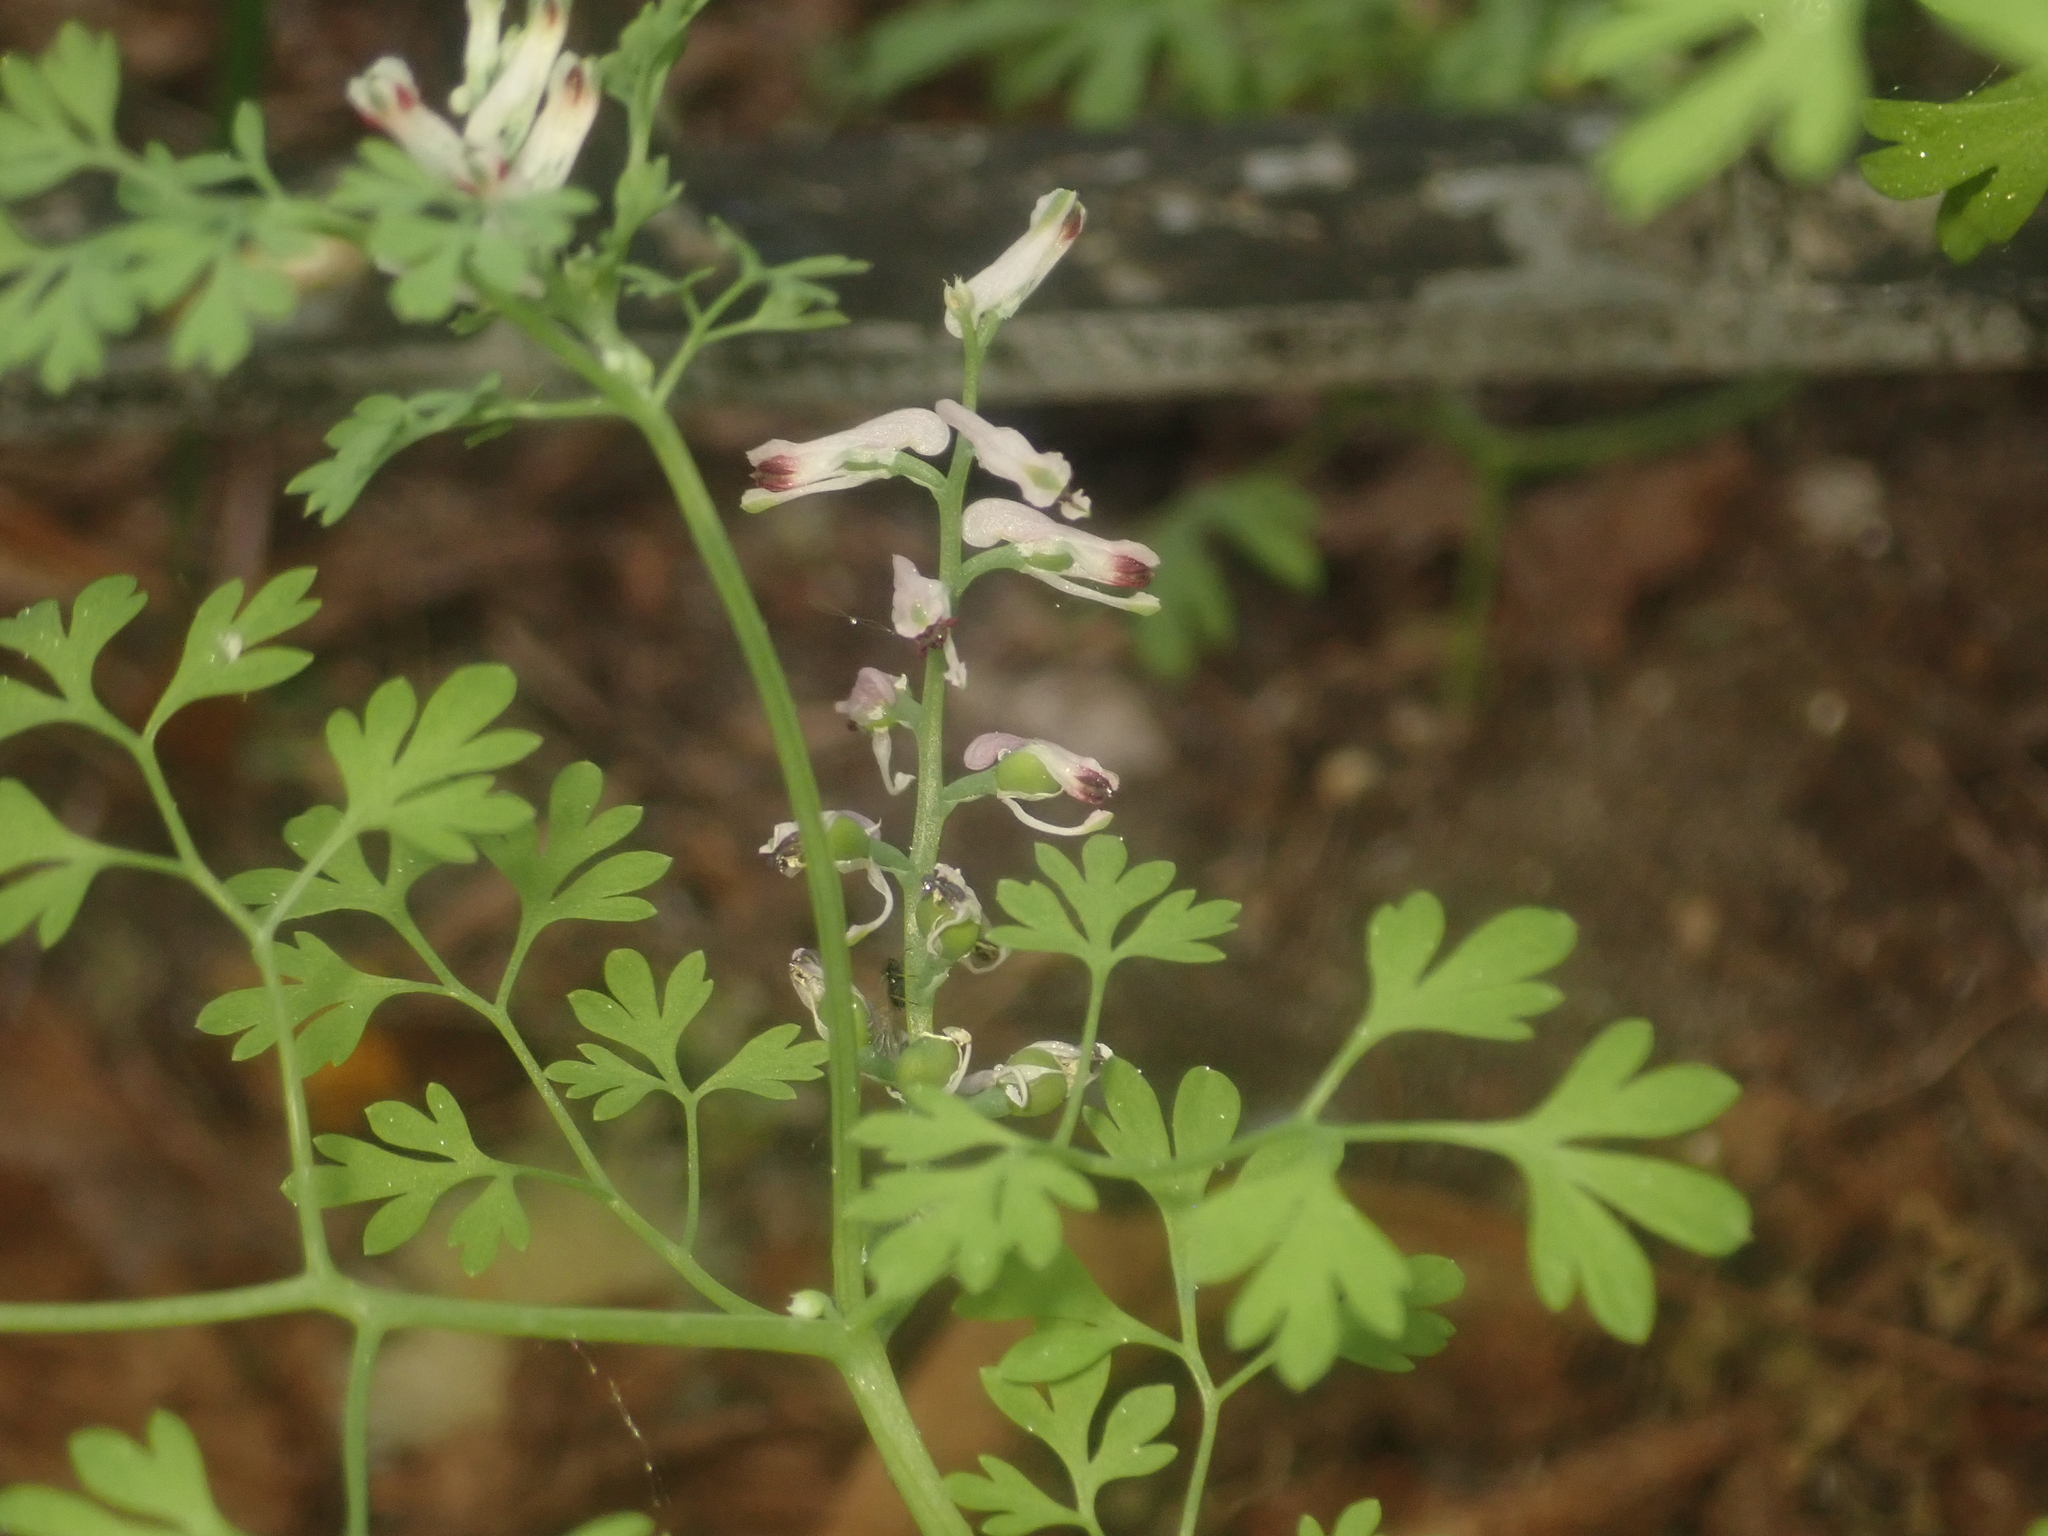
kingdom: Plantae
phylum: Tracheophyta
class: Magnoliopsida
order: Ranunculales
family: Papaveraceae
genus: Fumaria
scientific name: Fumaria officinalis
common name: Common fumitory
